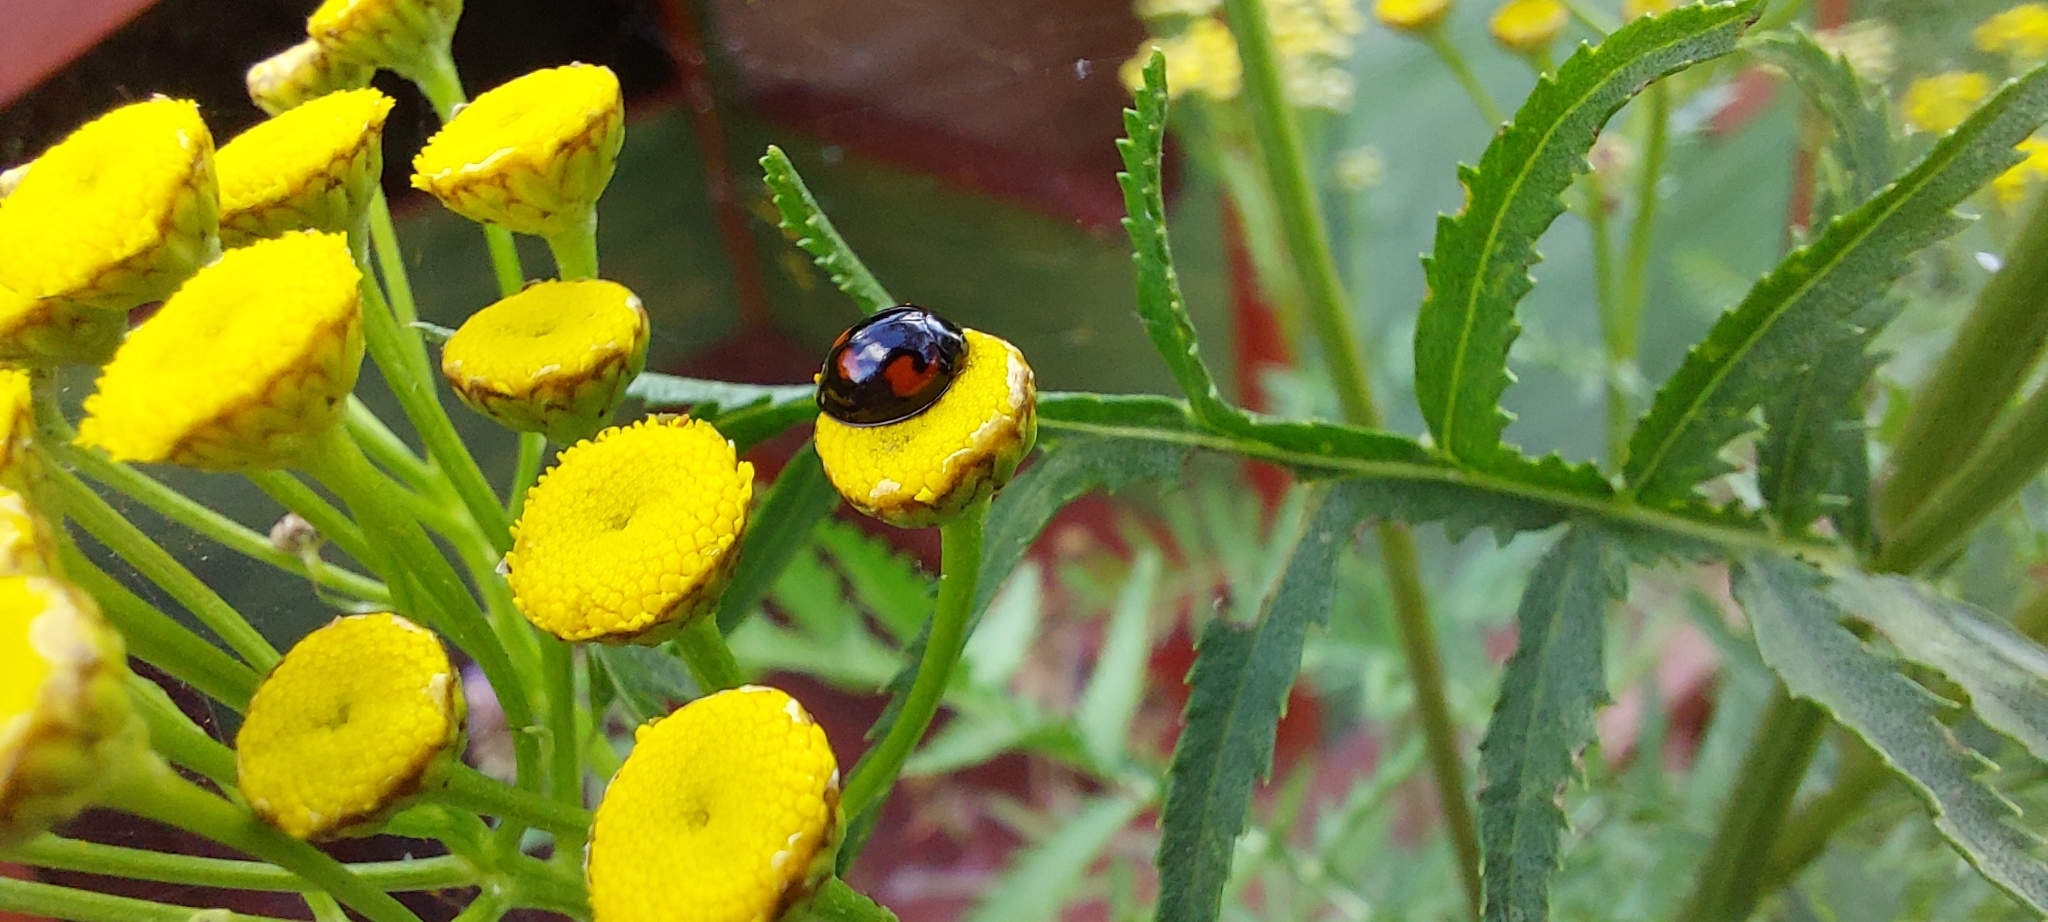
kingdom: Animalia
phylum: Arthropoda
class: Insecta
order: Coleoptera
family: Coccinellidae
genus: Brumus
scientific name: Brumus quadripustulatus
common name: Ladybird beetle
